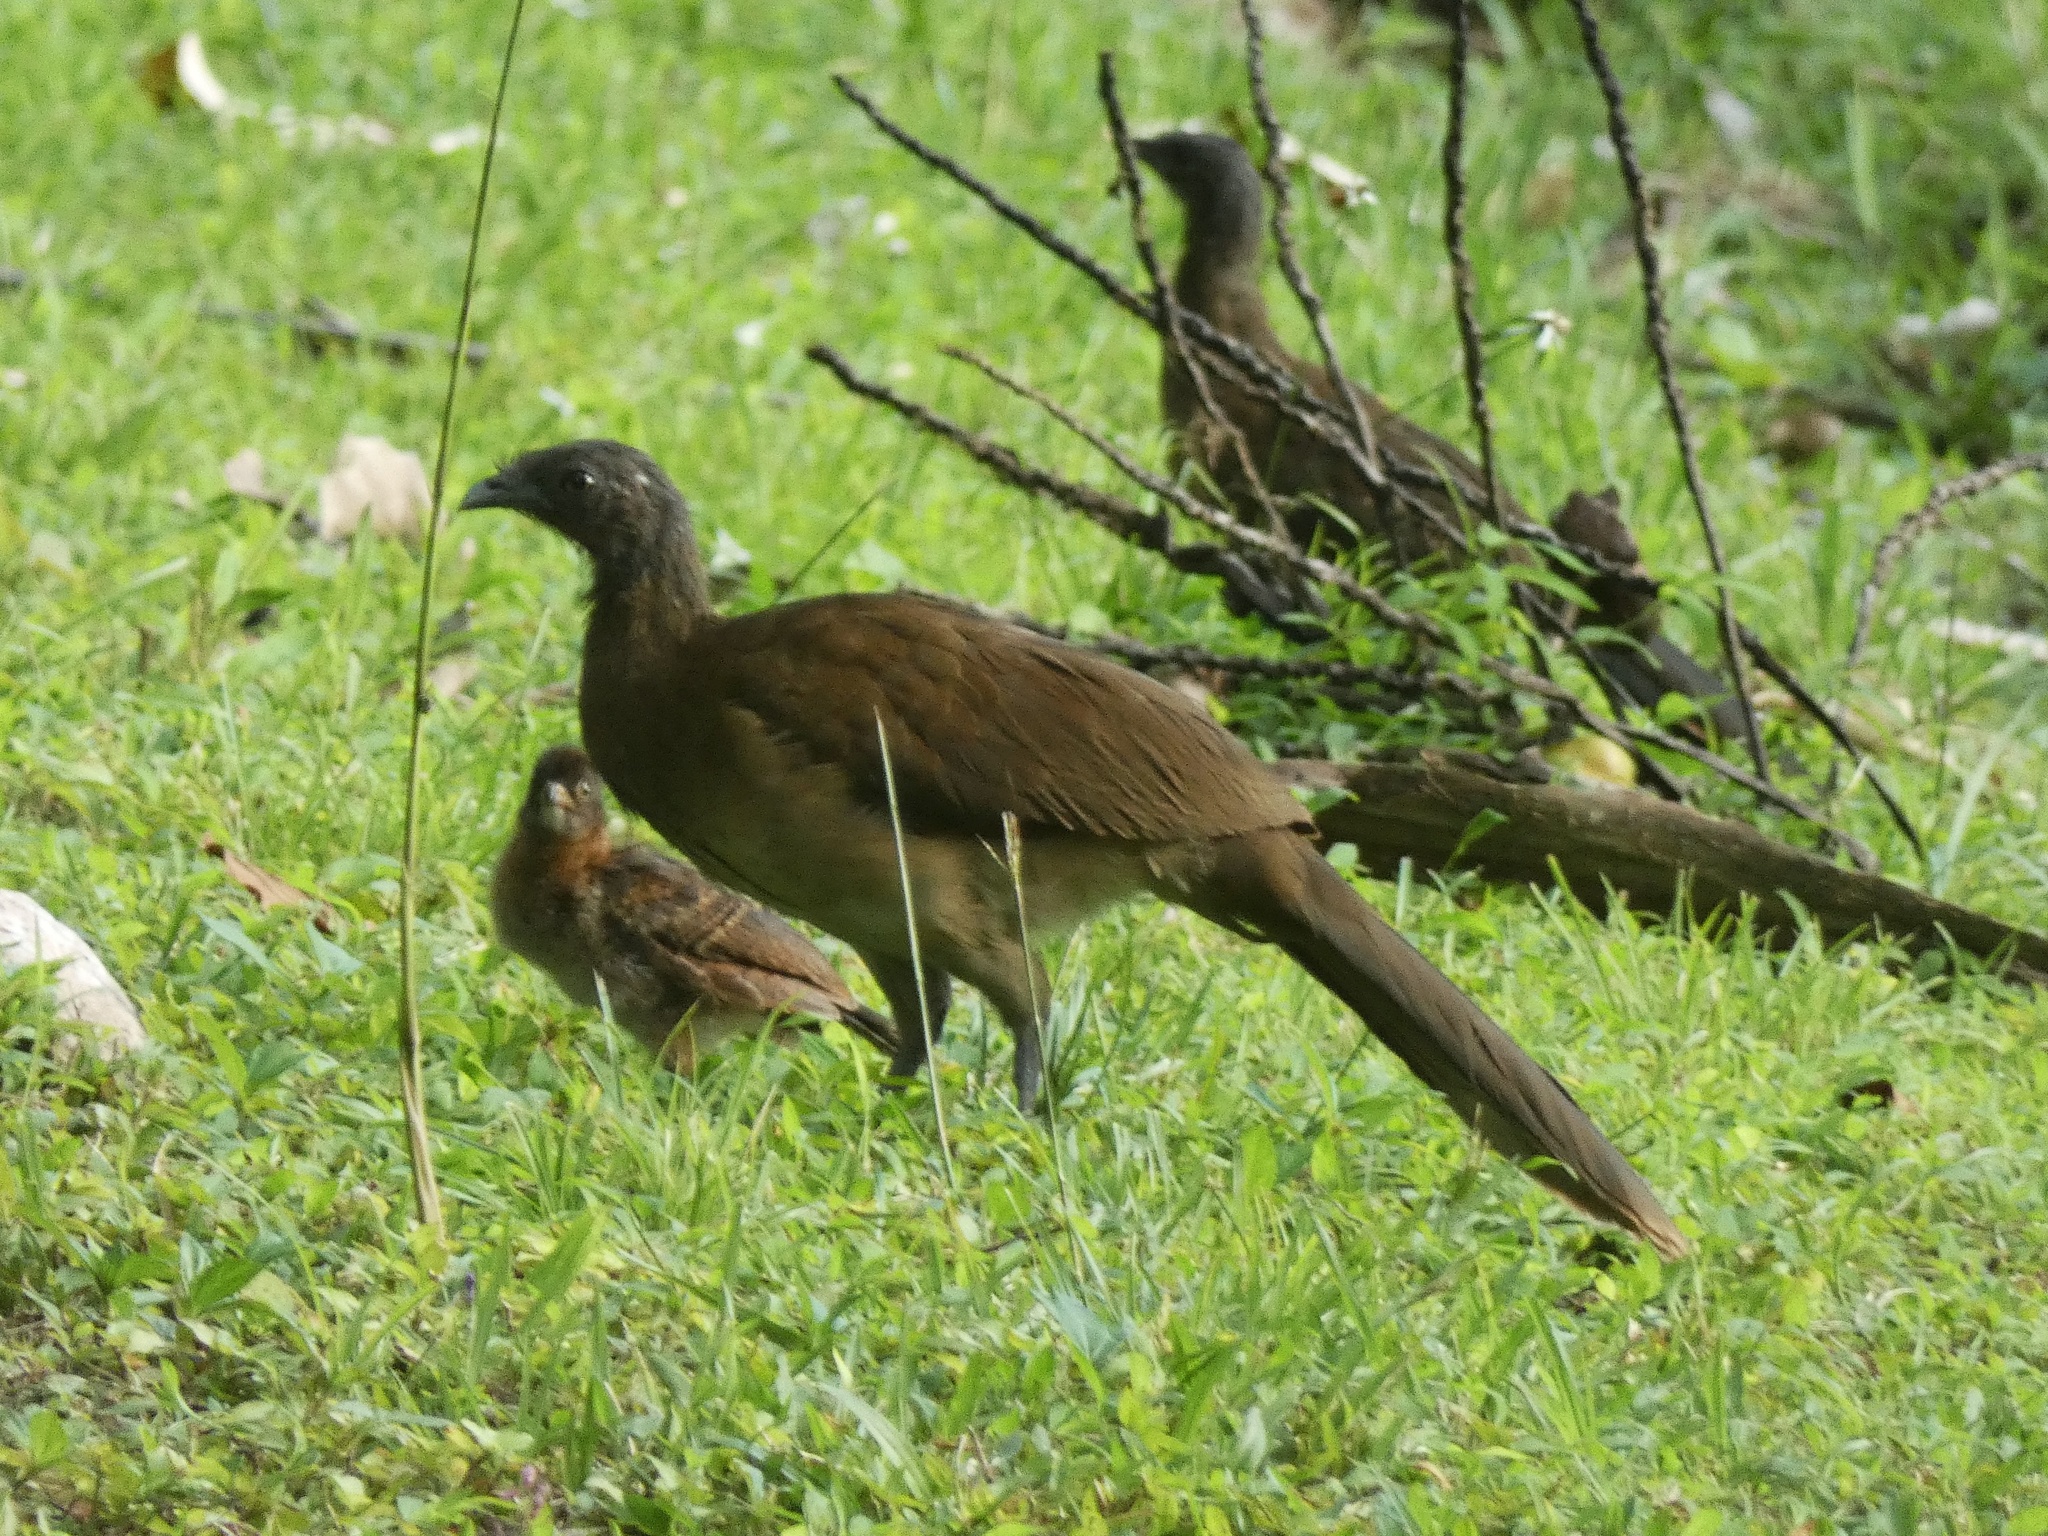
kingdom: Animalia
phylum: Chordata
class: Aves
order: Galliformes
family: Cracidae
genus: Ortalis
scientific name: Ortalis cinereiceps
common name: Grey-headed chachalaca
